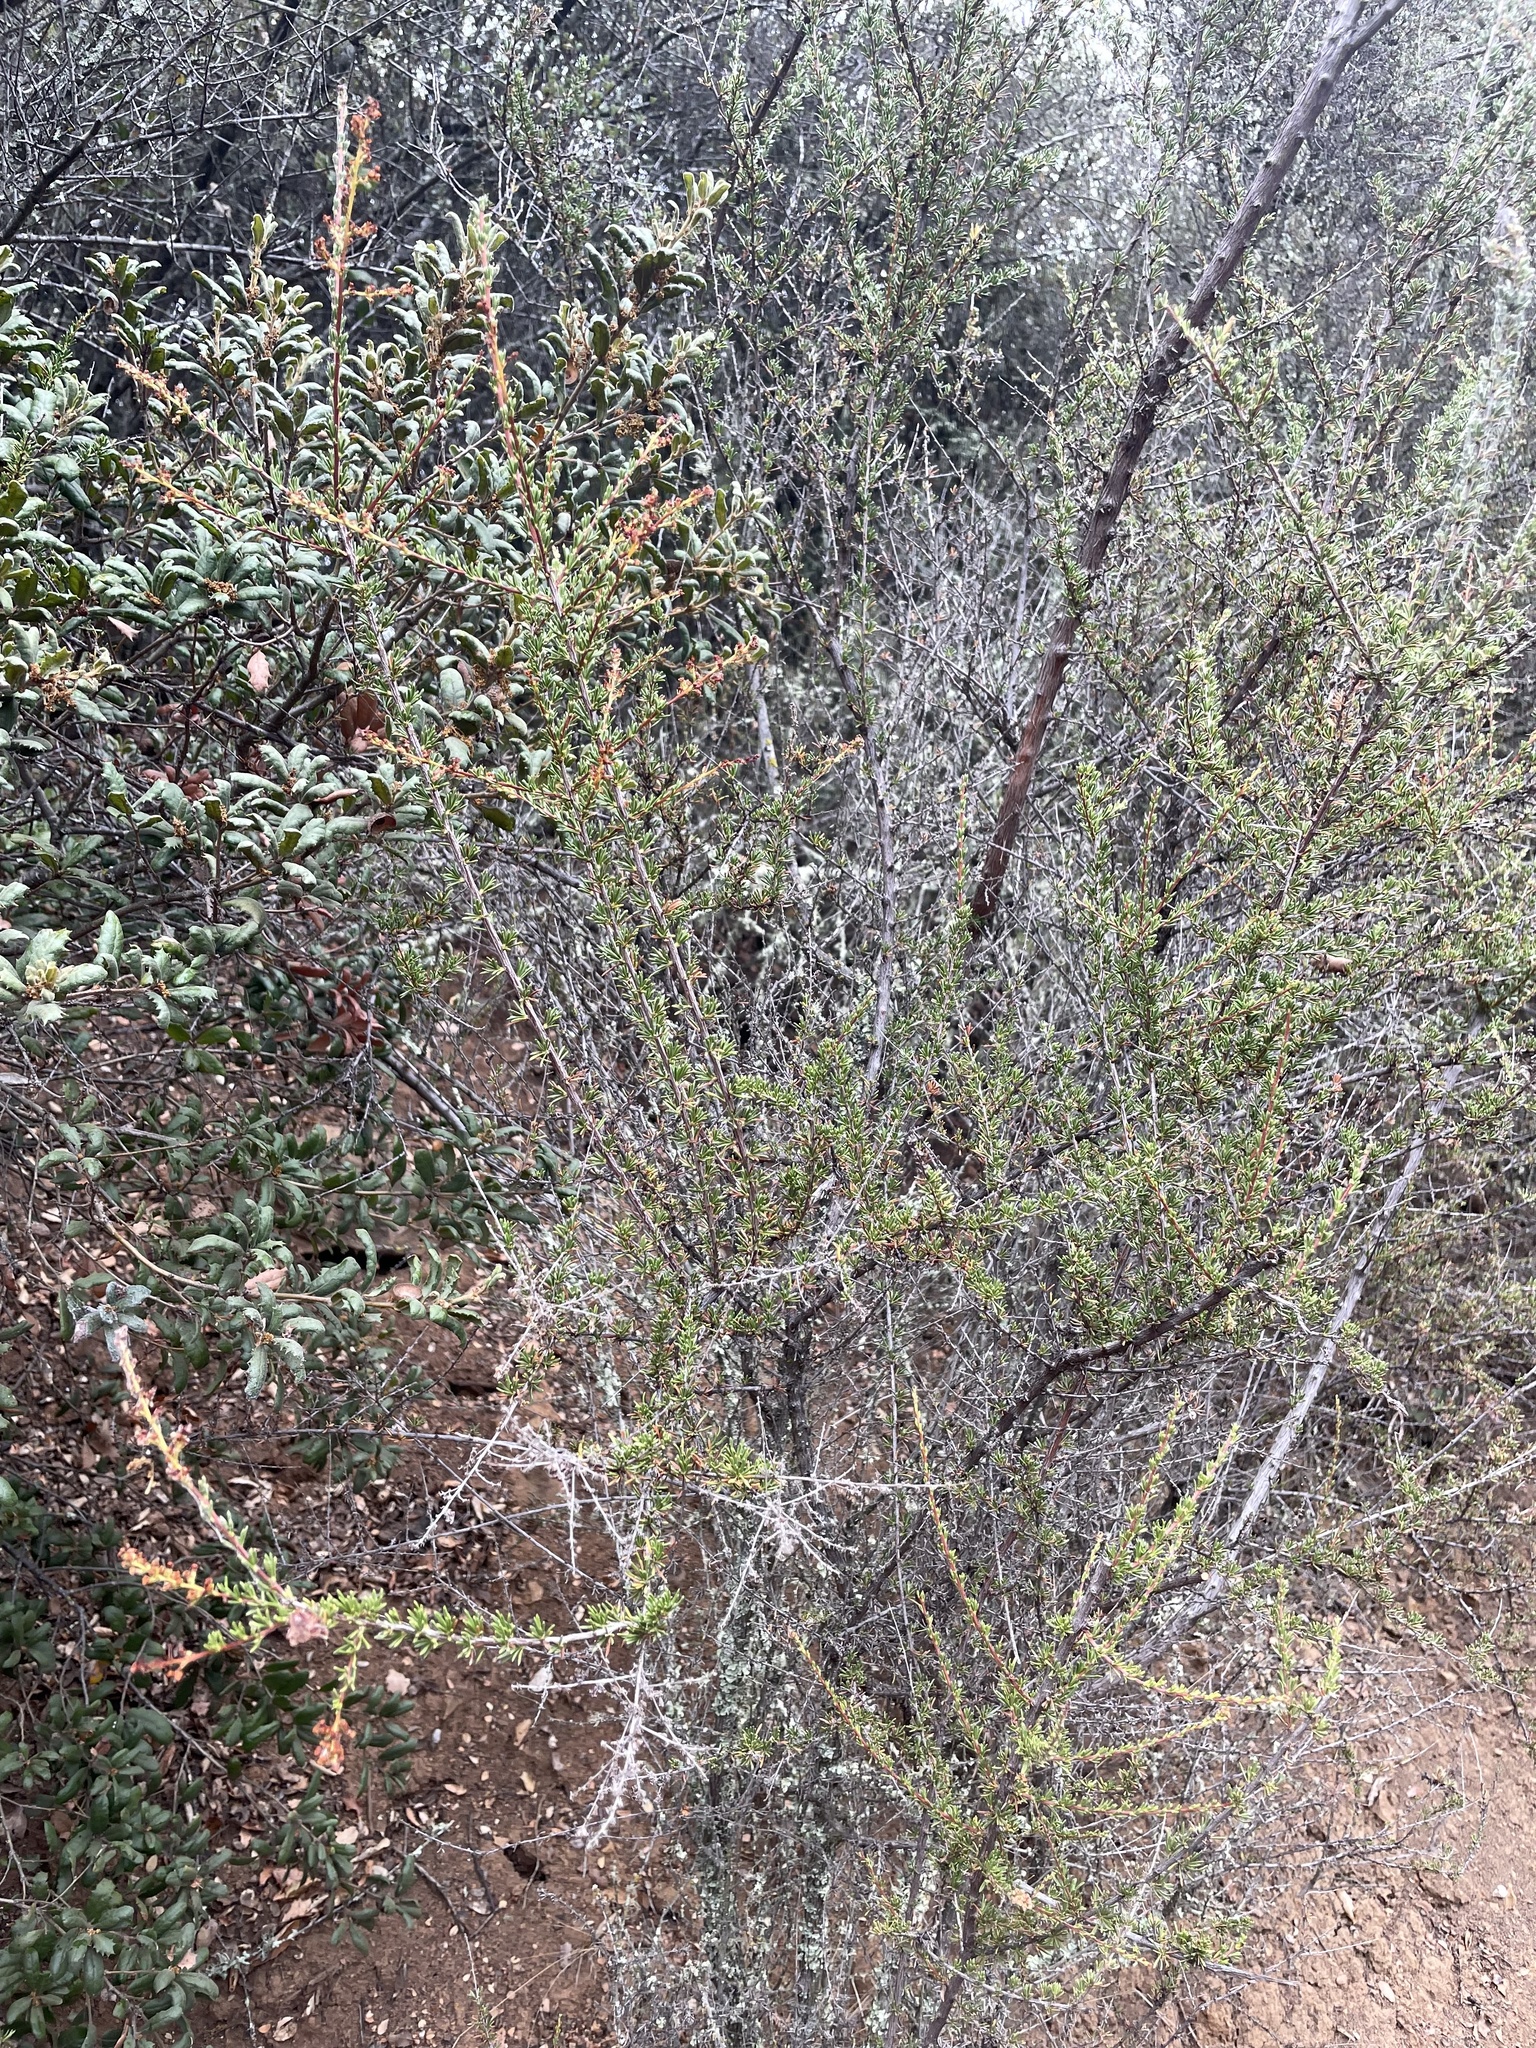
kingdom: Plantae
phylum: Tracheophyta
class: Magnoliopsida
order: Rosales
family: Rosaceae
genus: Adenostoma
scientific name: Adenostoma fasciculatum
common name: Chamise
